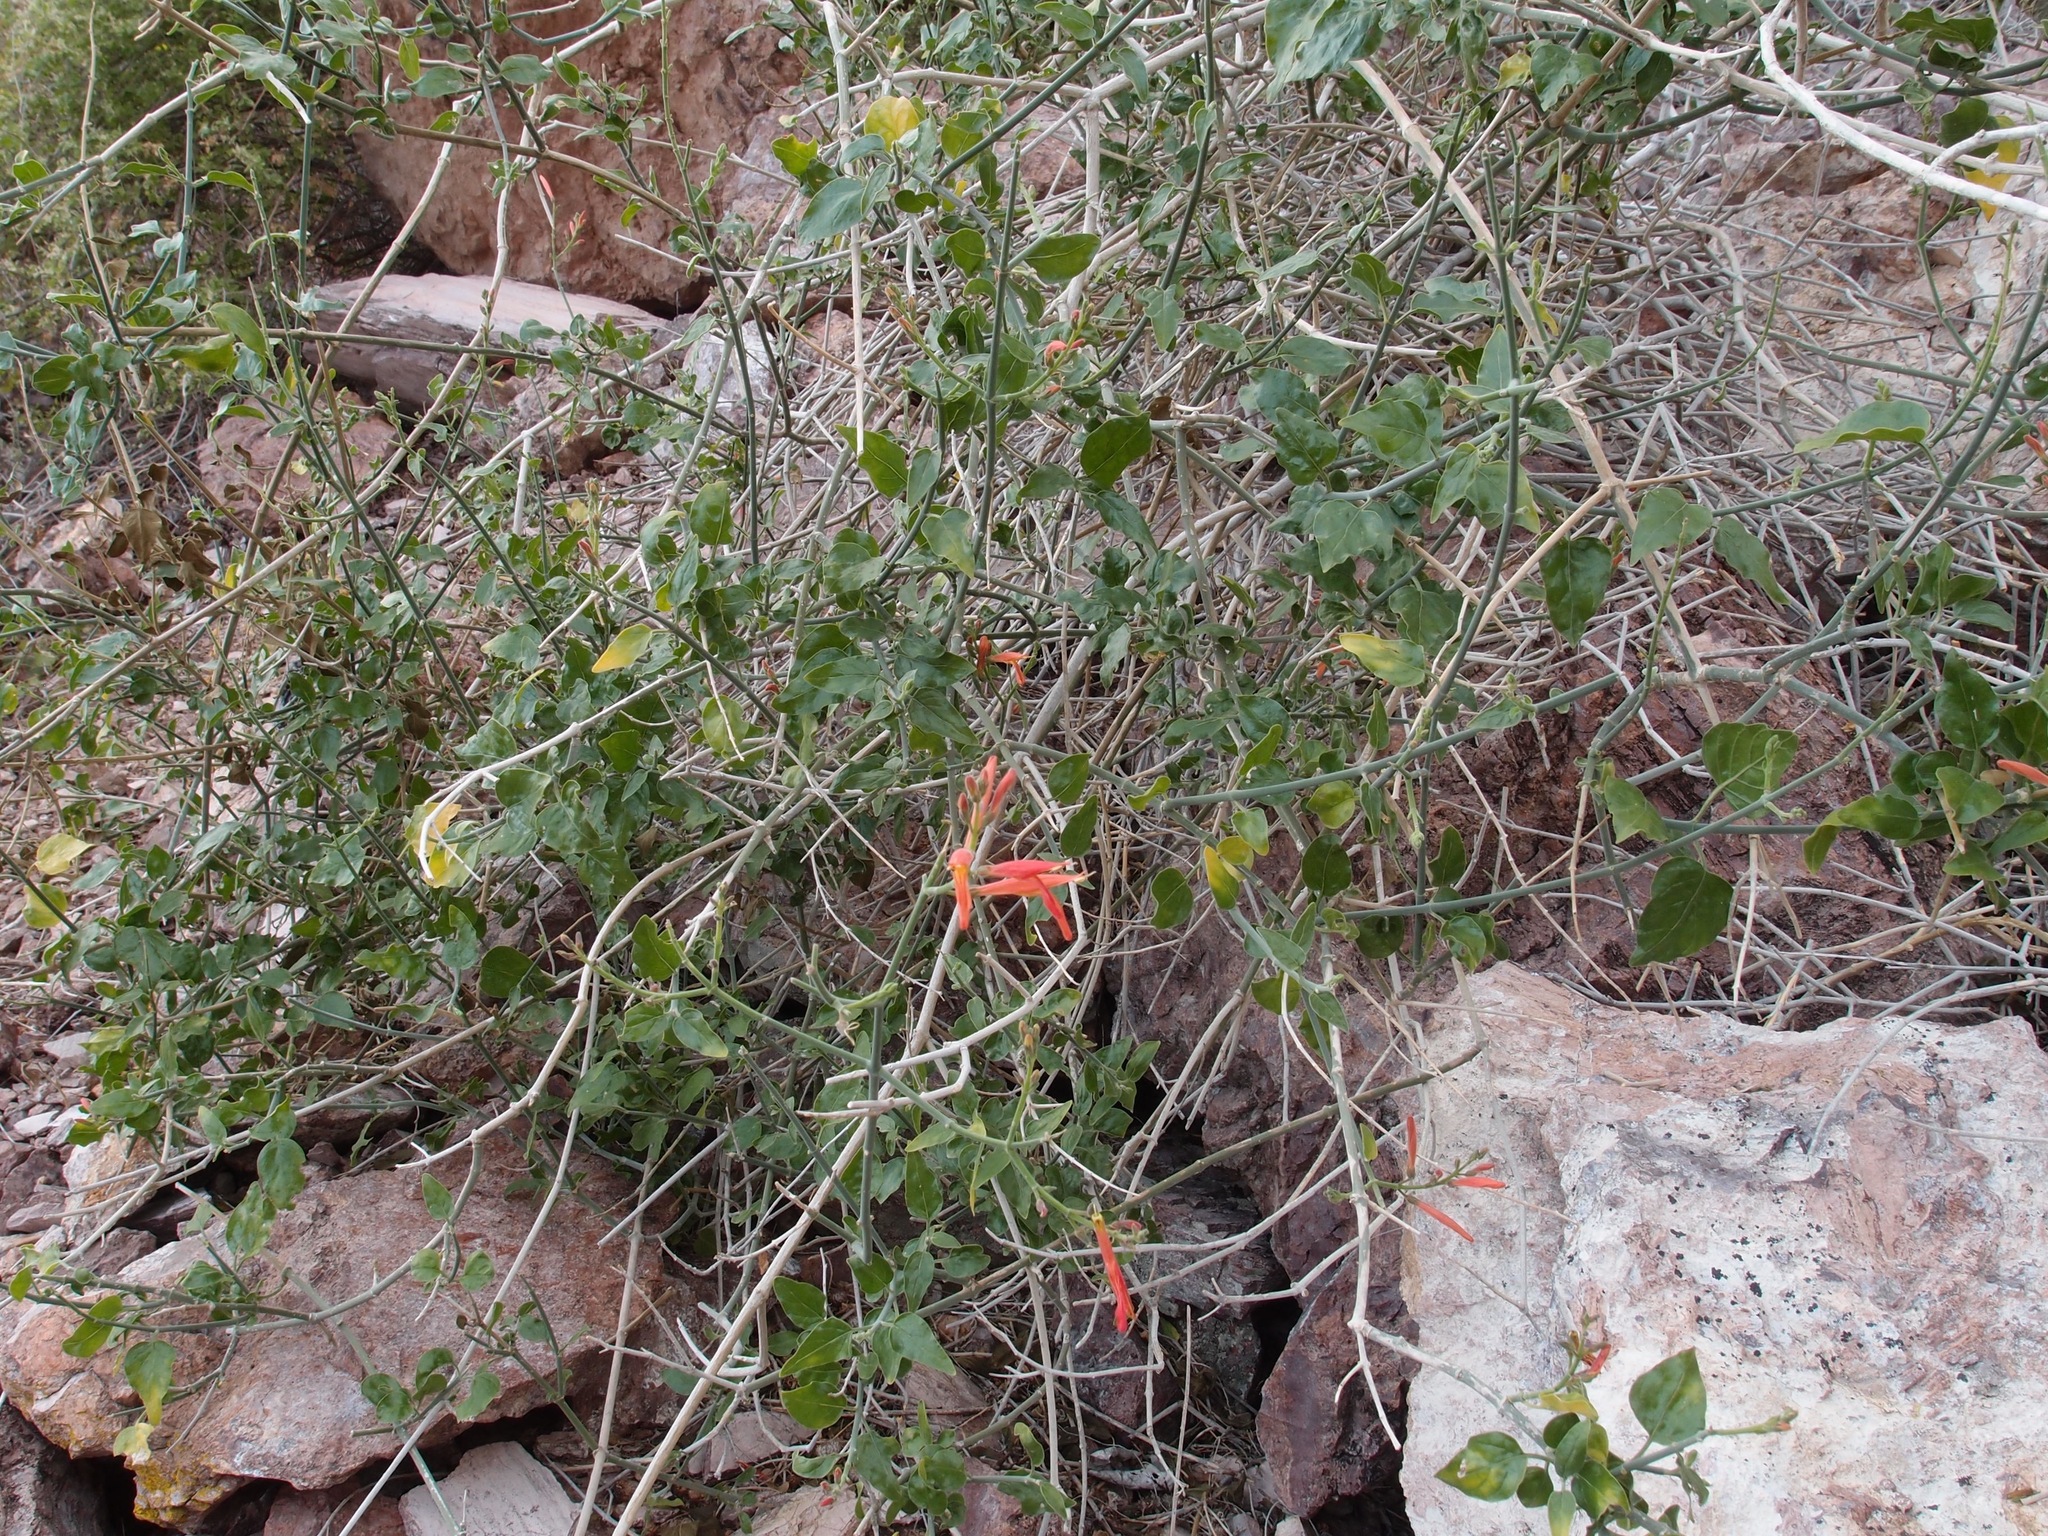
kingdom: Plantae
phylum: Tracheophyta
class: Magnoliopsida
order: Lamiales
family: Acanthaceae
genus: Justicia
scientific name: Justicia californica
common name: Chuparosa-honeysuckle
